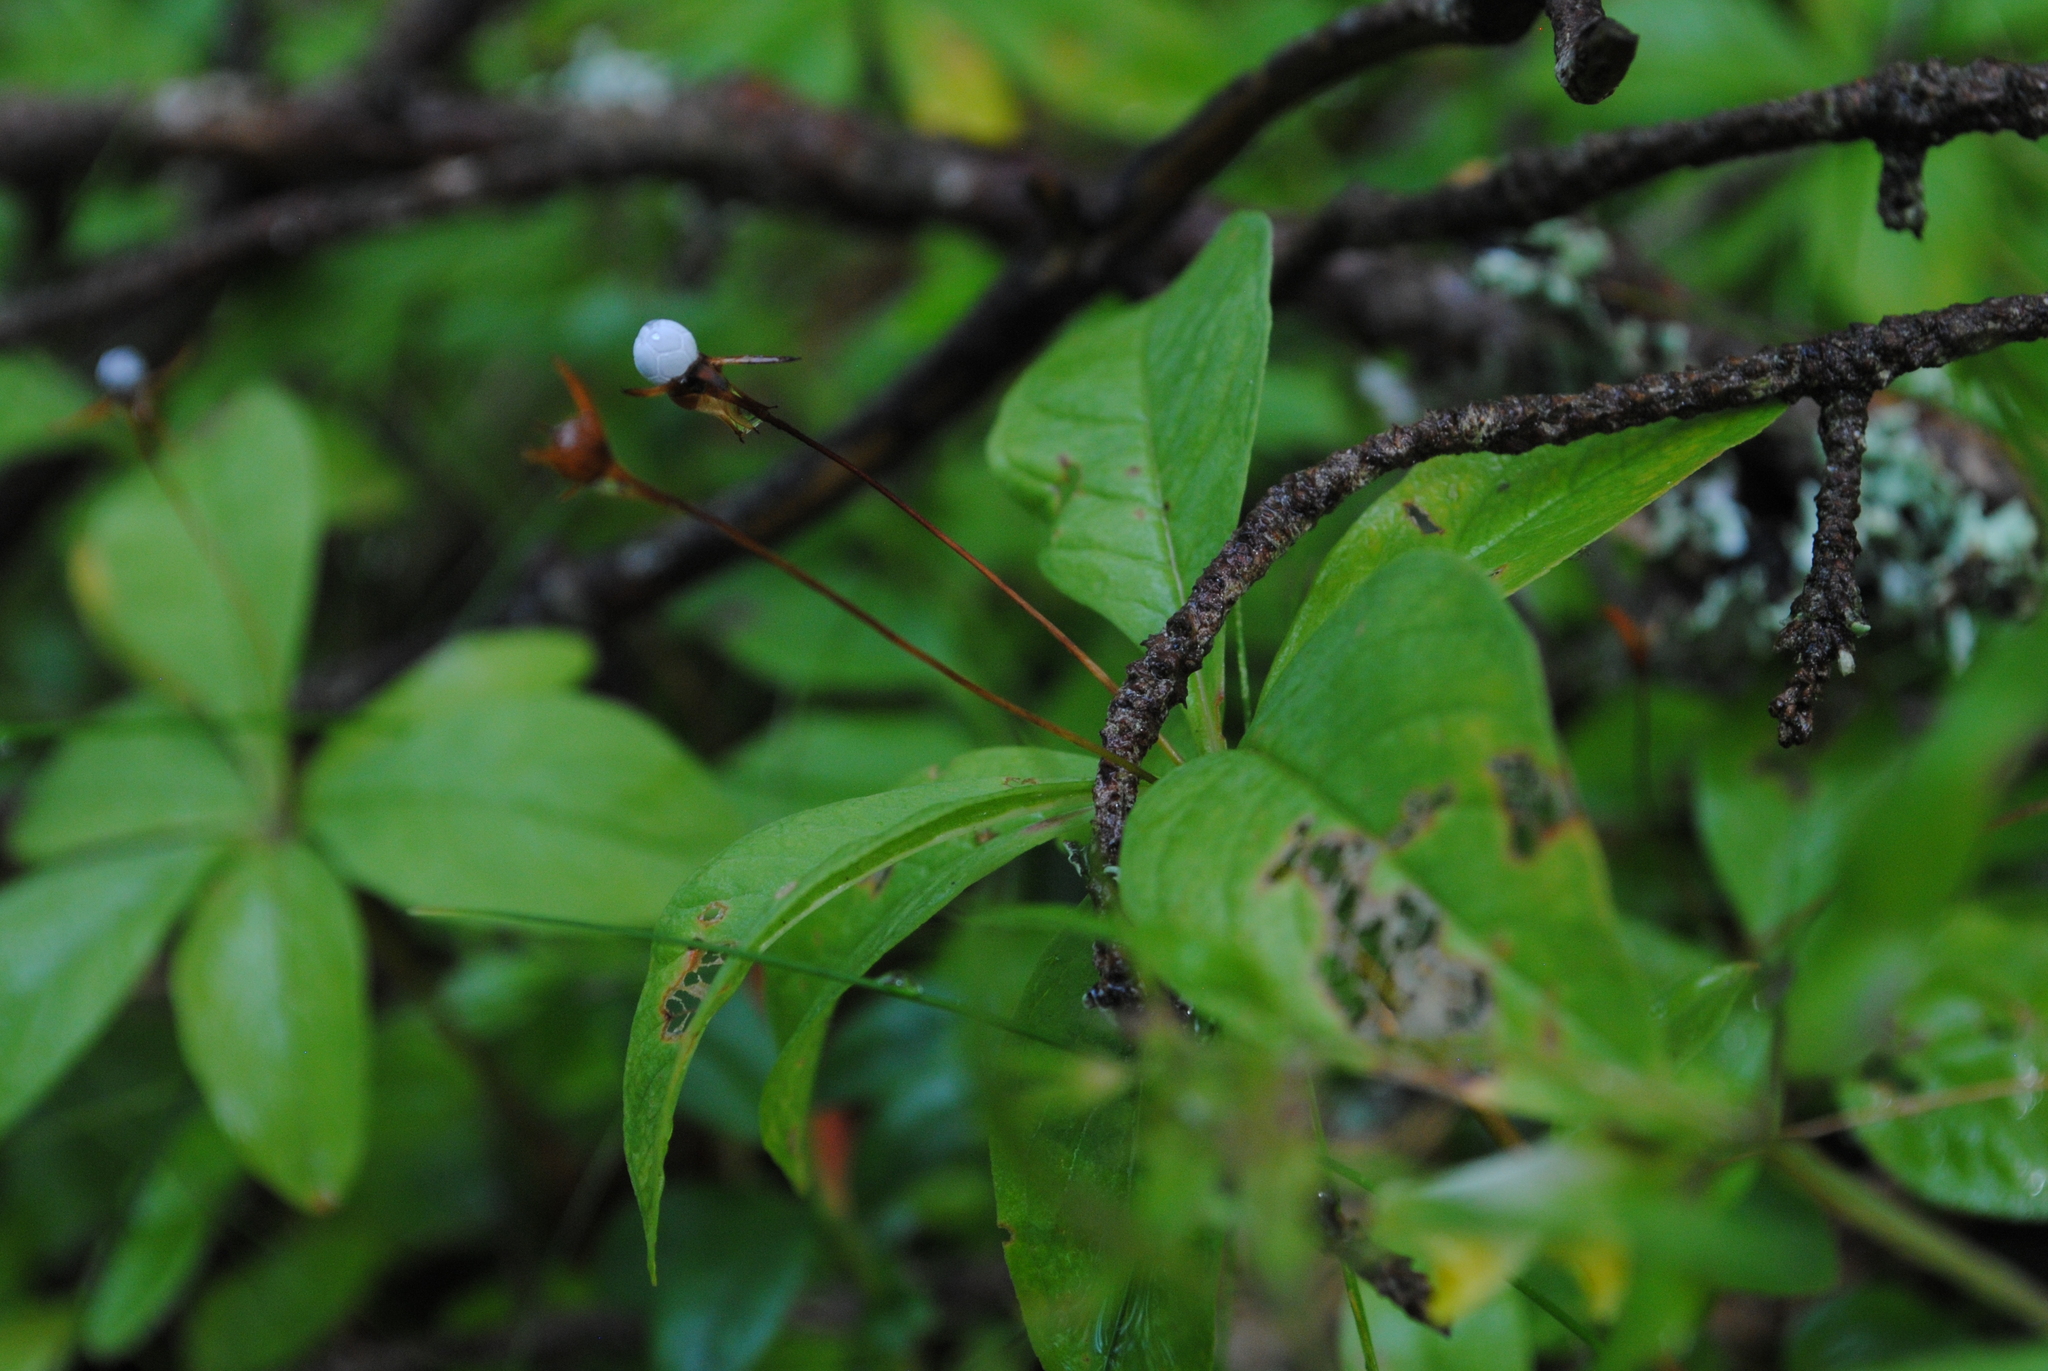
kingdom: Plantae
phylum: Tracheophyta
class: Magnoliopsida
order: Ericales
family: Primulaceae
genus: Lysimachia
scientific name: Lysimachia europaea
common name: Arctic starflower
